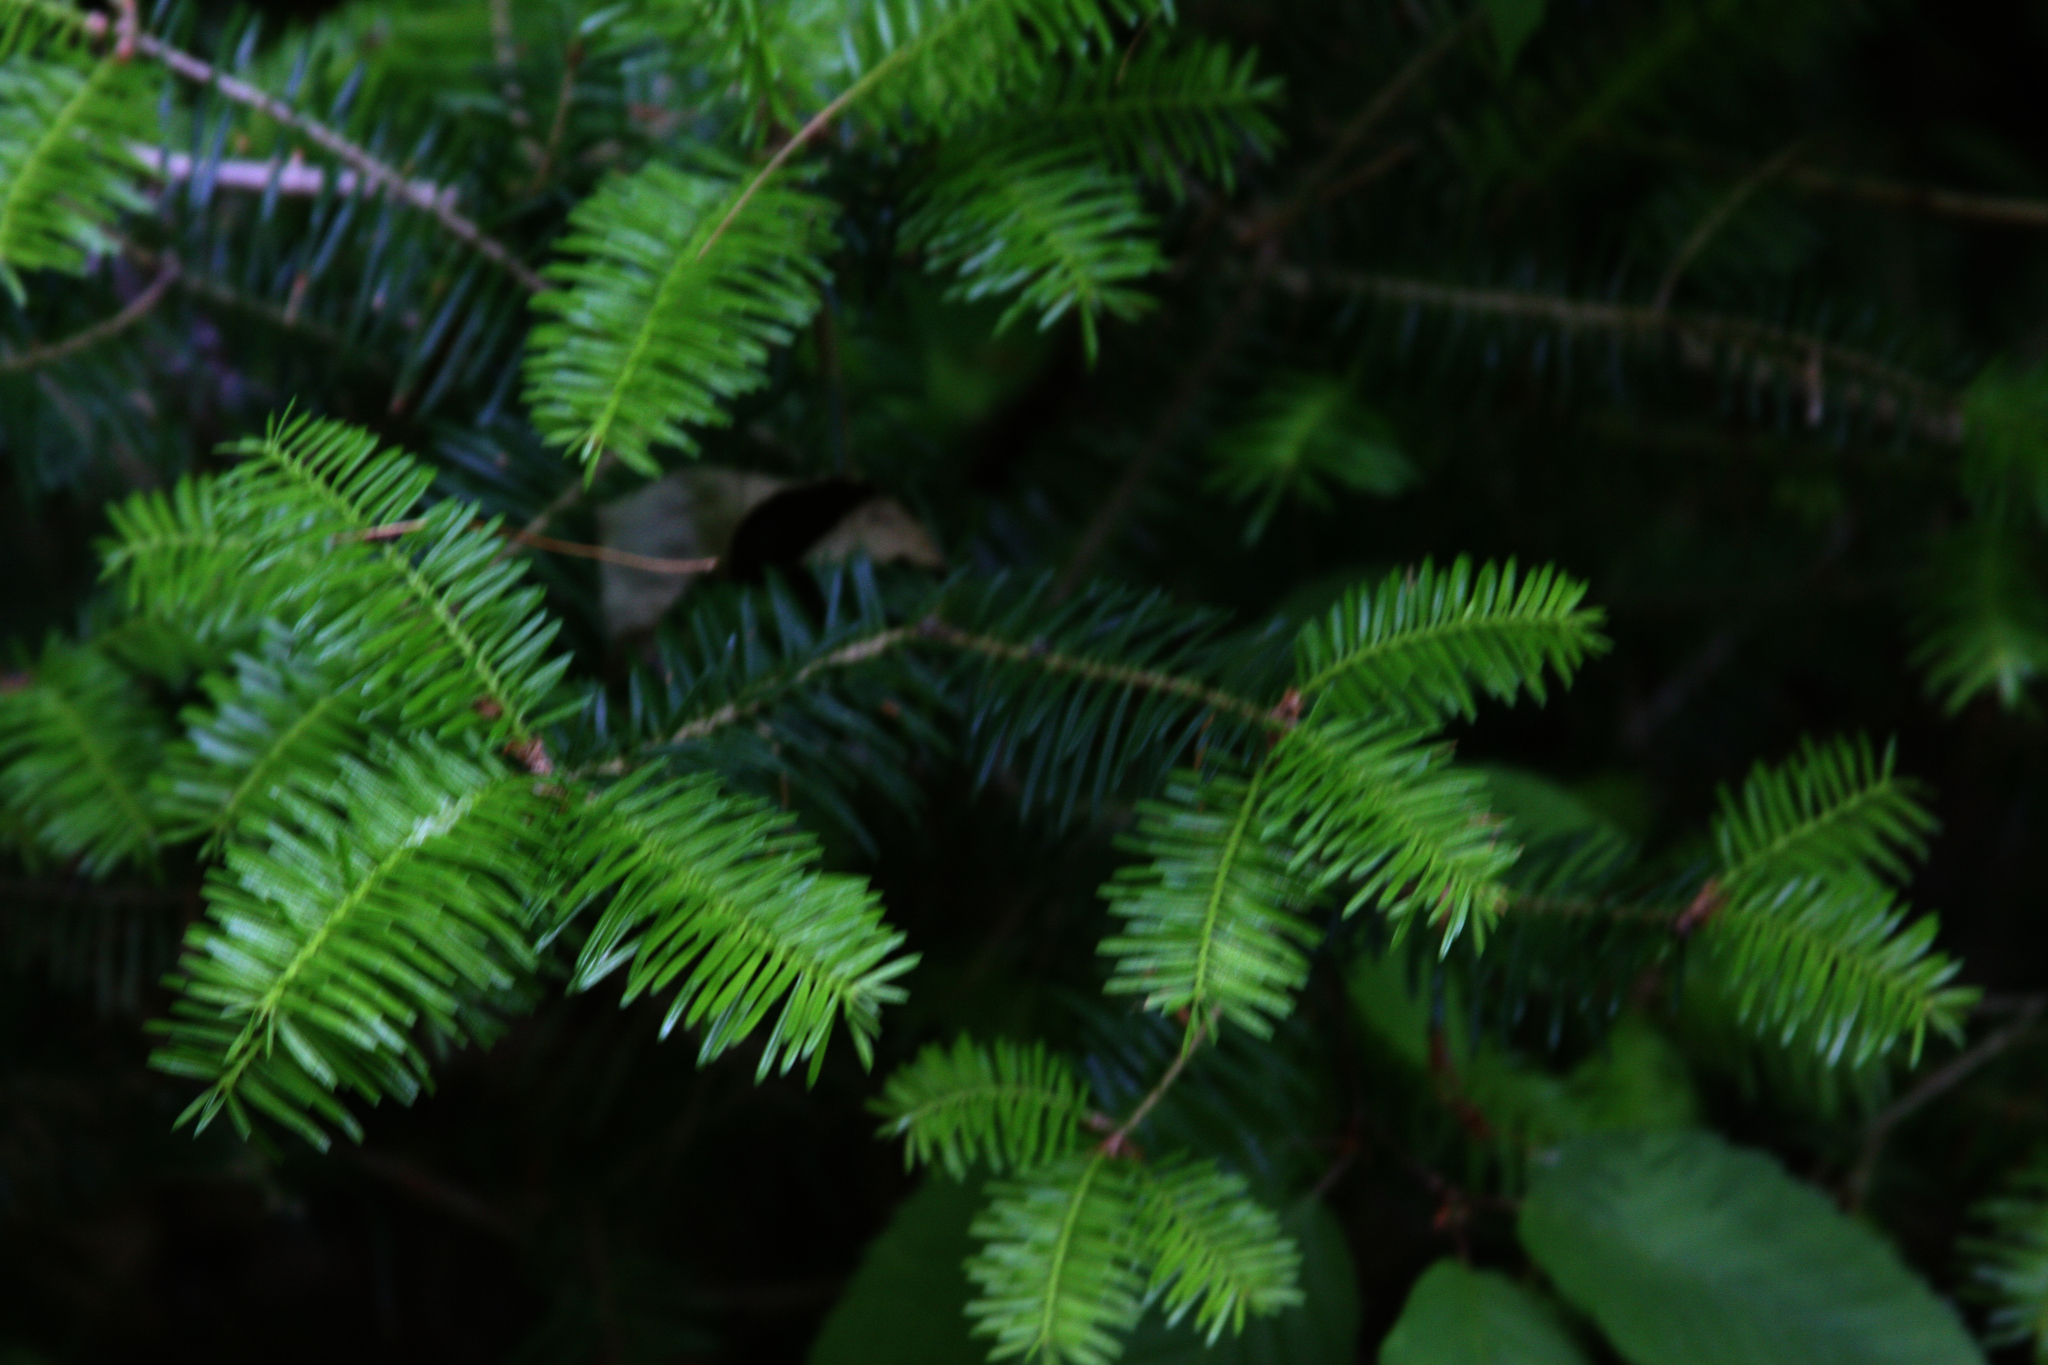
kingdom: Plantae
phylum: Tracheophyta
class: Pinopsida
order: Pinales
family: Pinaceae
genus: Abies
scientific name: Abies balsamea
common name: Balsam fir
